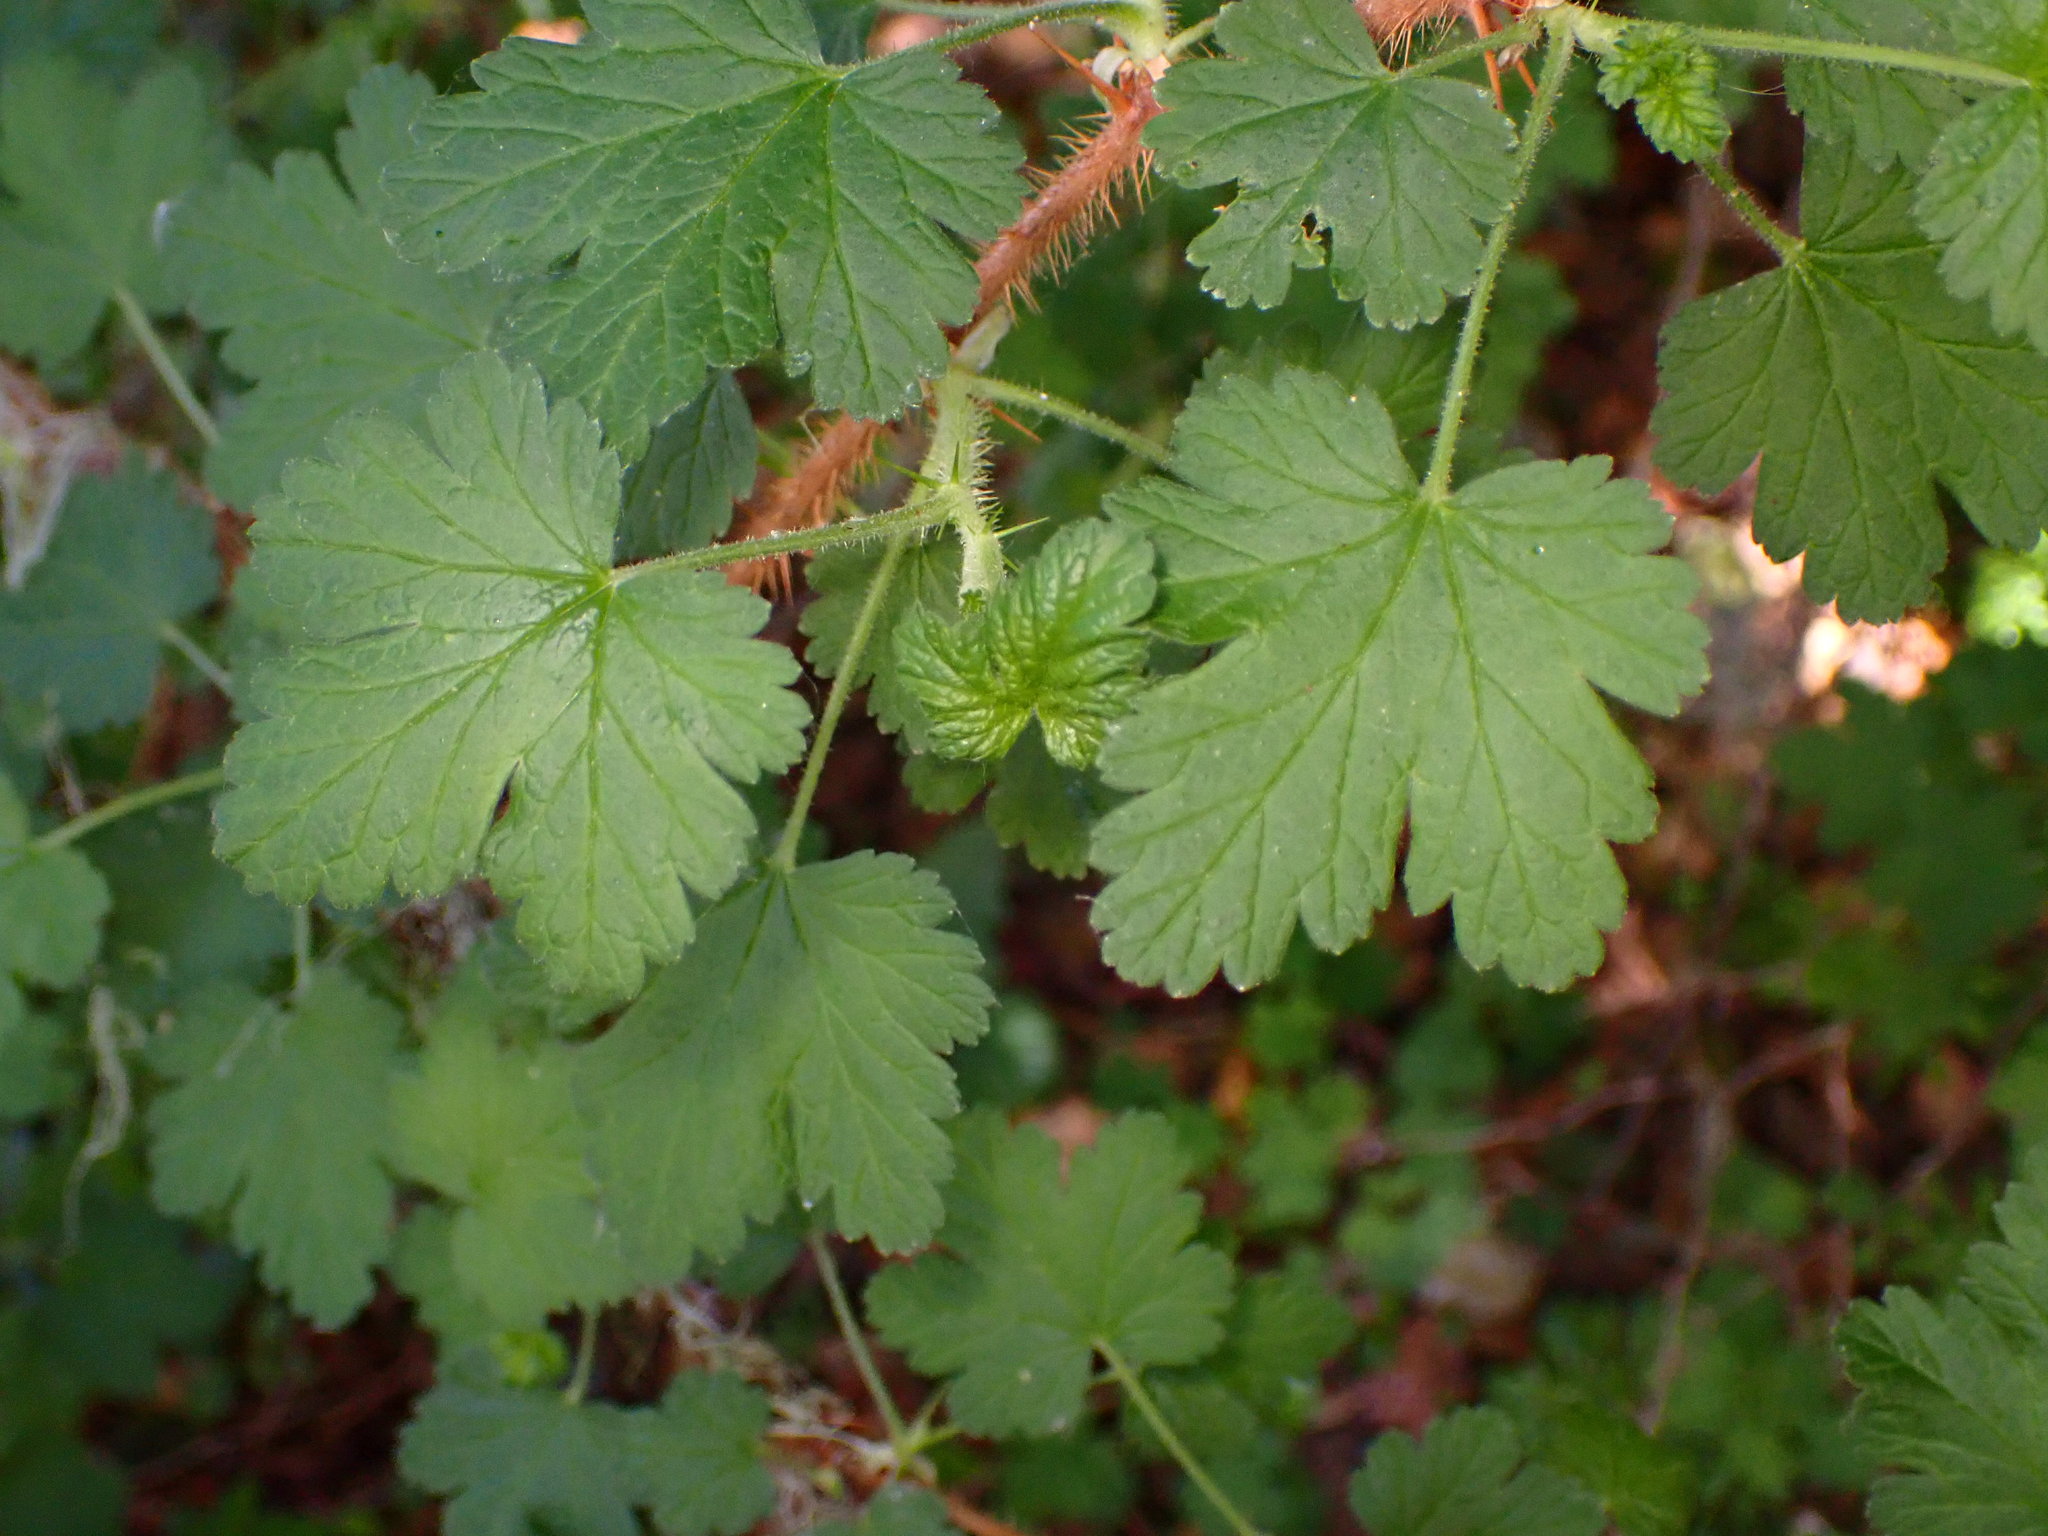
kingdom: Plantae
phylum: Tracheophyta
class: Magnoliopsida
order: Saxifragales
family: Grossulariaceae
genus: Ribes
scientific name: Ribes menziesii
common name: Canyon gooseberry
